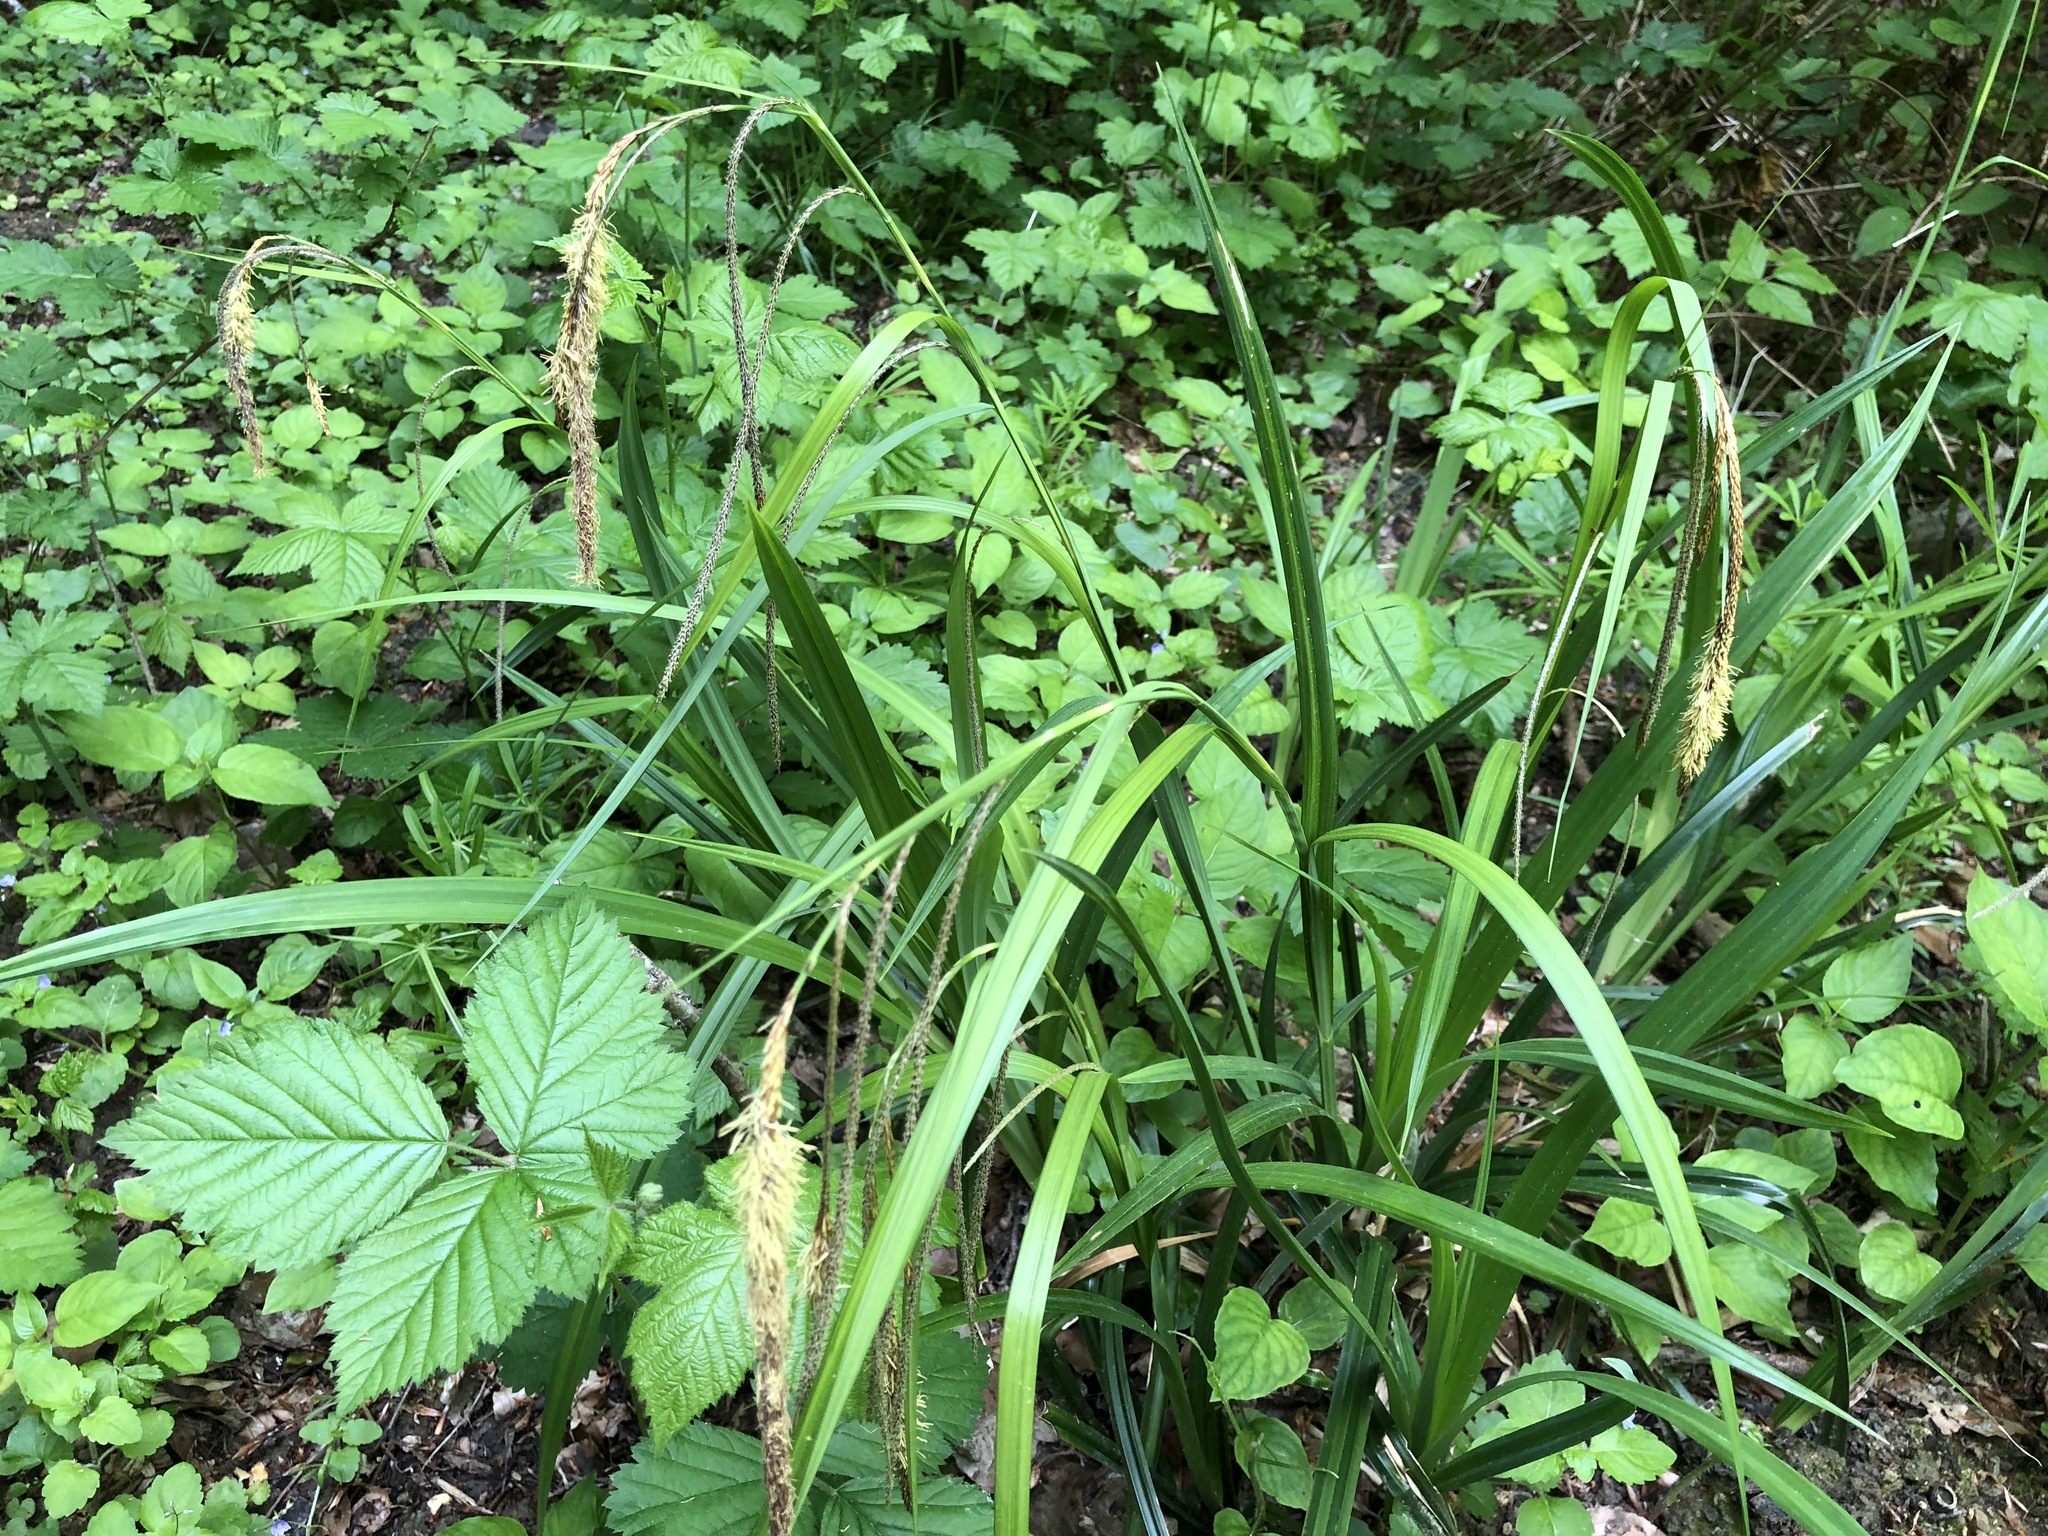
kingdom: Plantae
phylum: Tracheophyta
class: Liliopsida
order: Poales
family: Cyperaceae
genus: Carex
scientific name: Carex pendula
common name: Pendulous sedge
